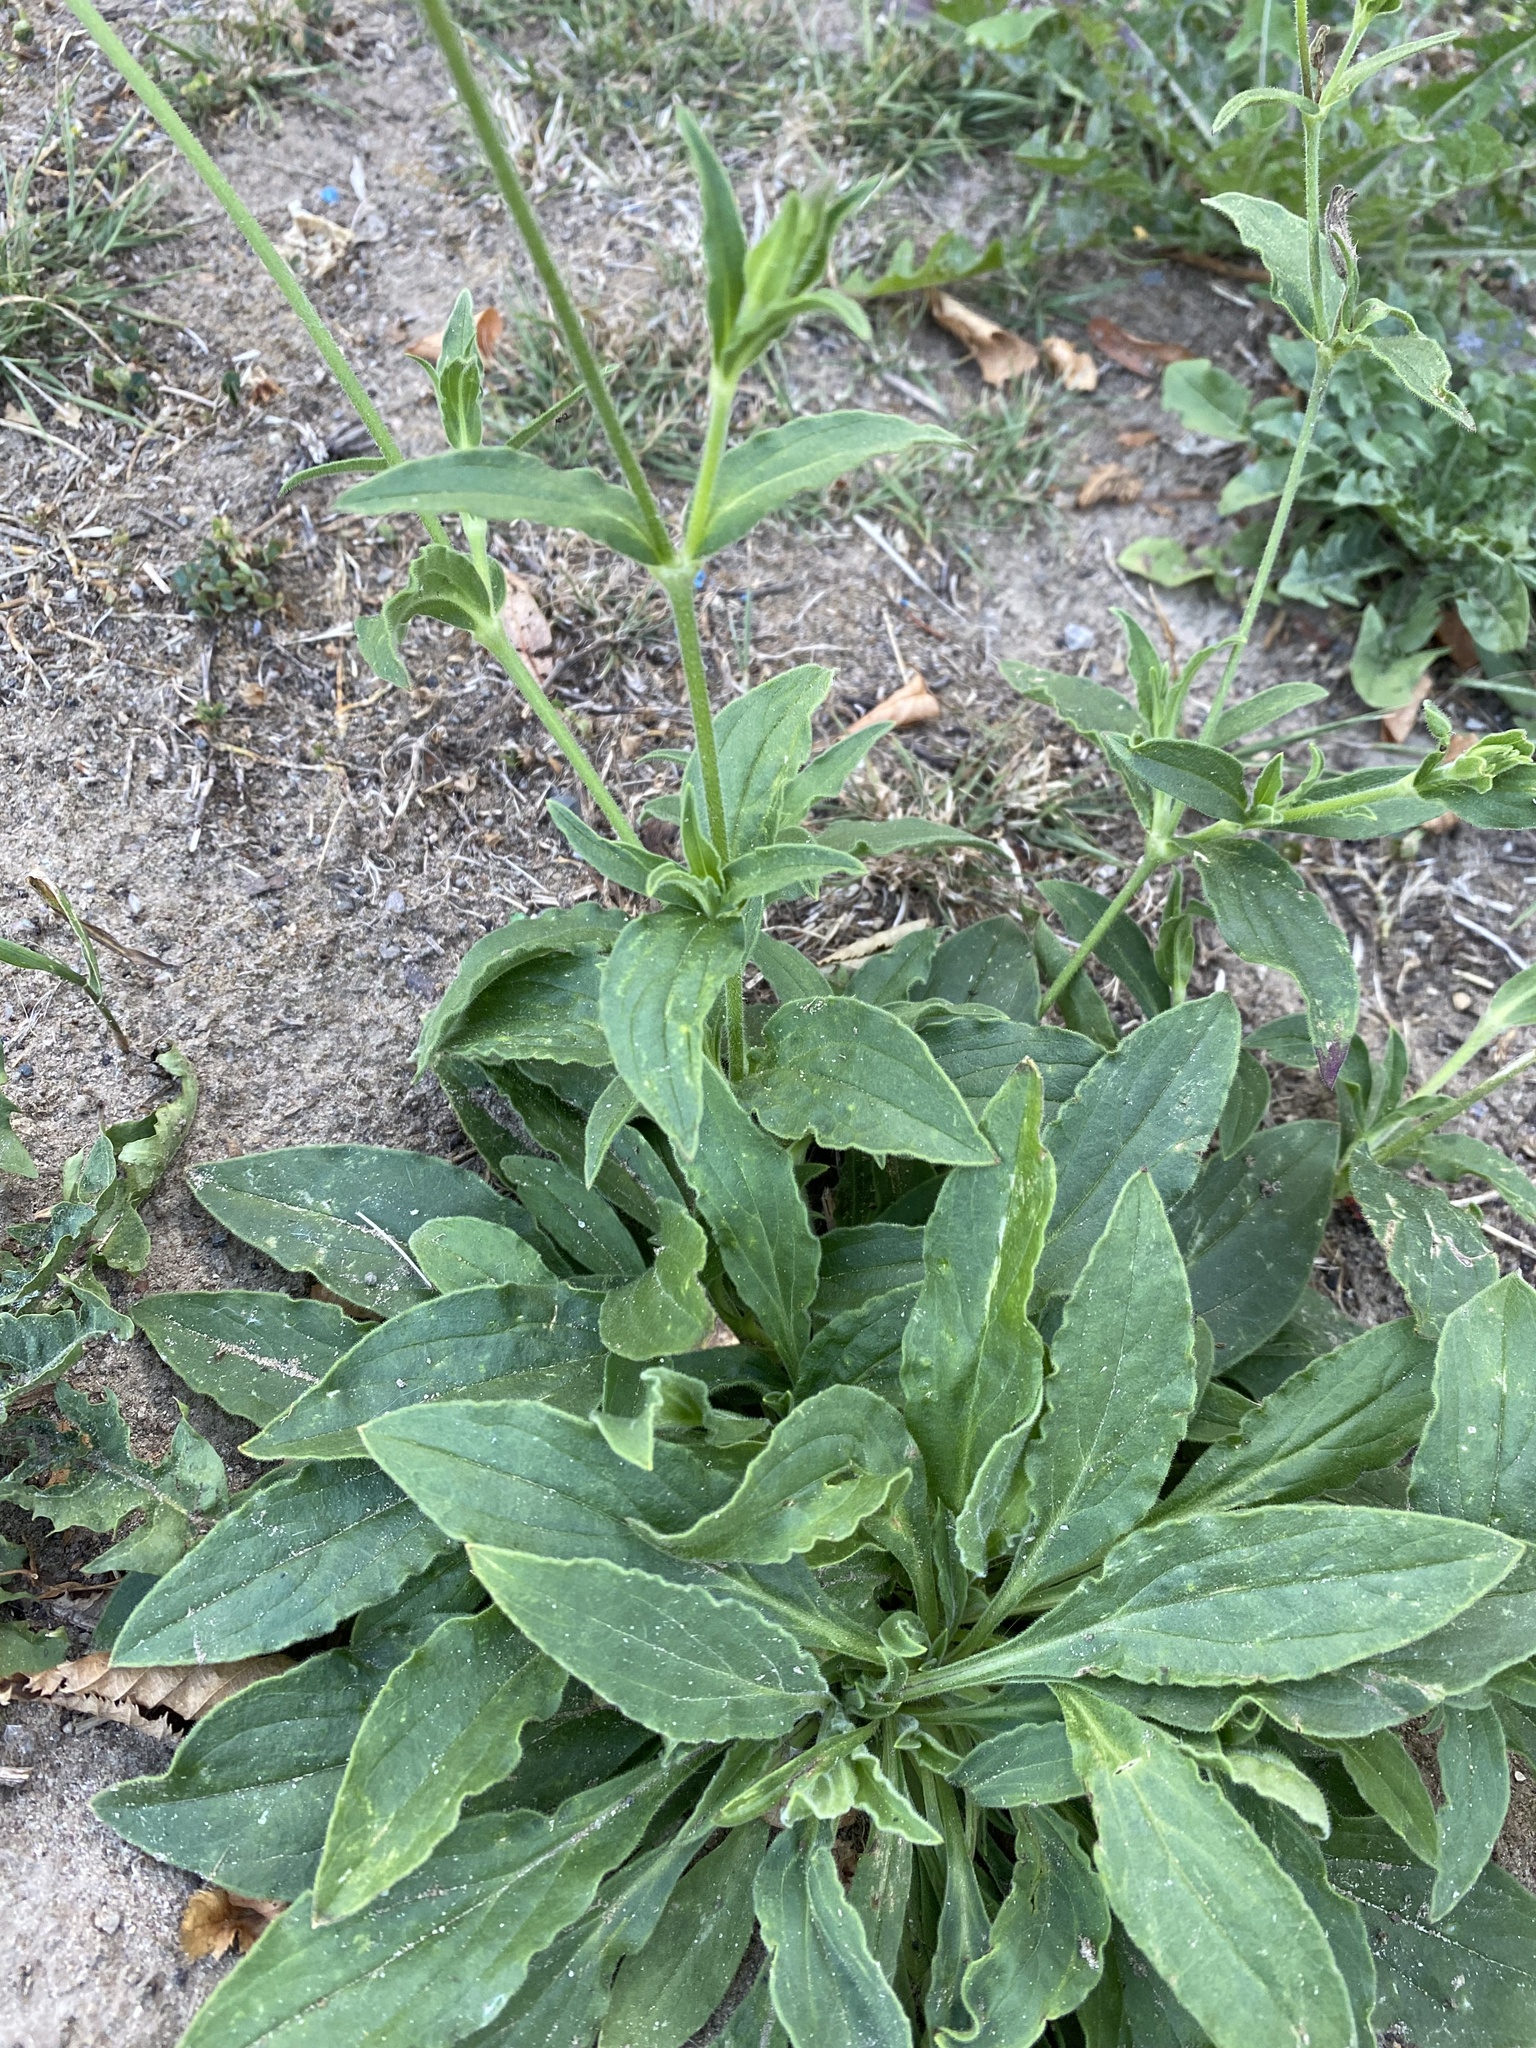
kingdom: Plantae
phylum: Tracheophyta
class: Magnoliopsida
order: Caryophyllales
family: Caryophyllaceae
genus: Silene
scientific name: Silene latifolia
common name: White campion
